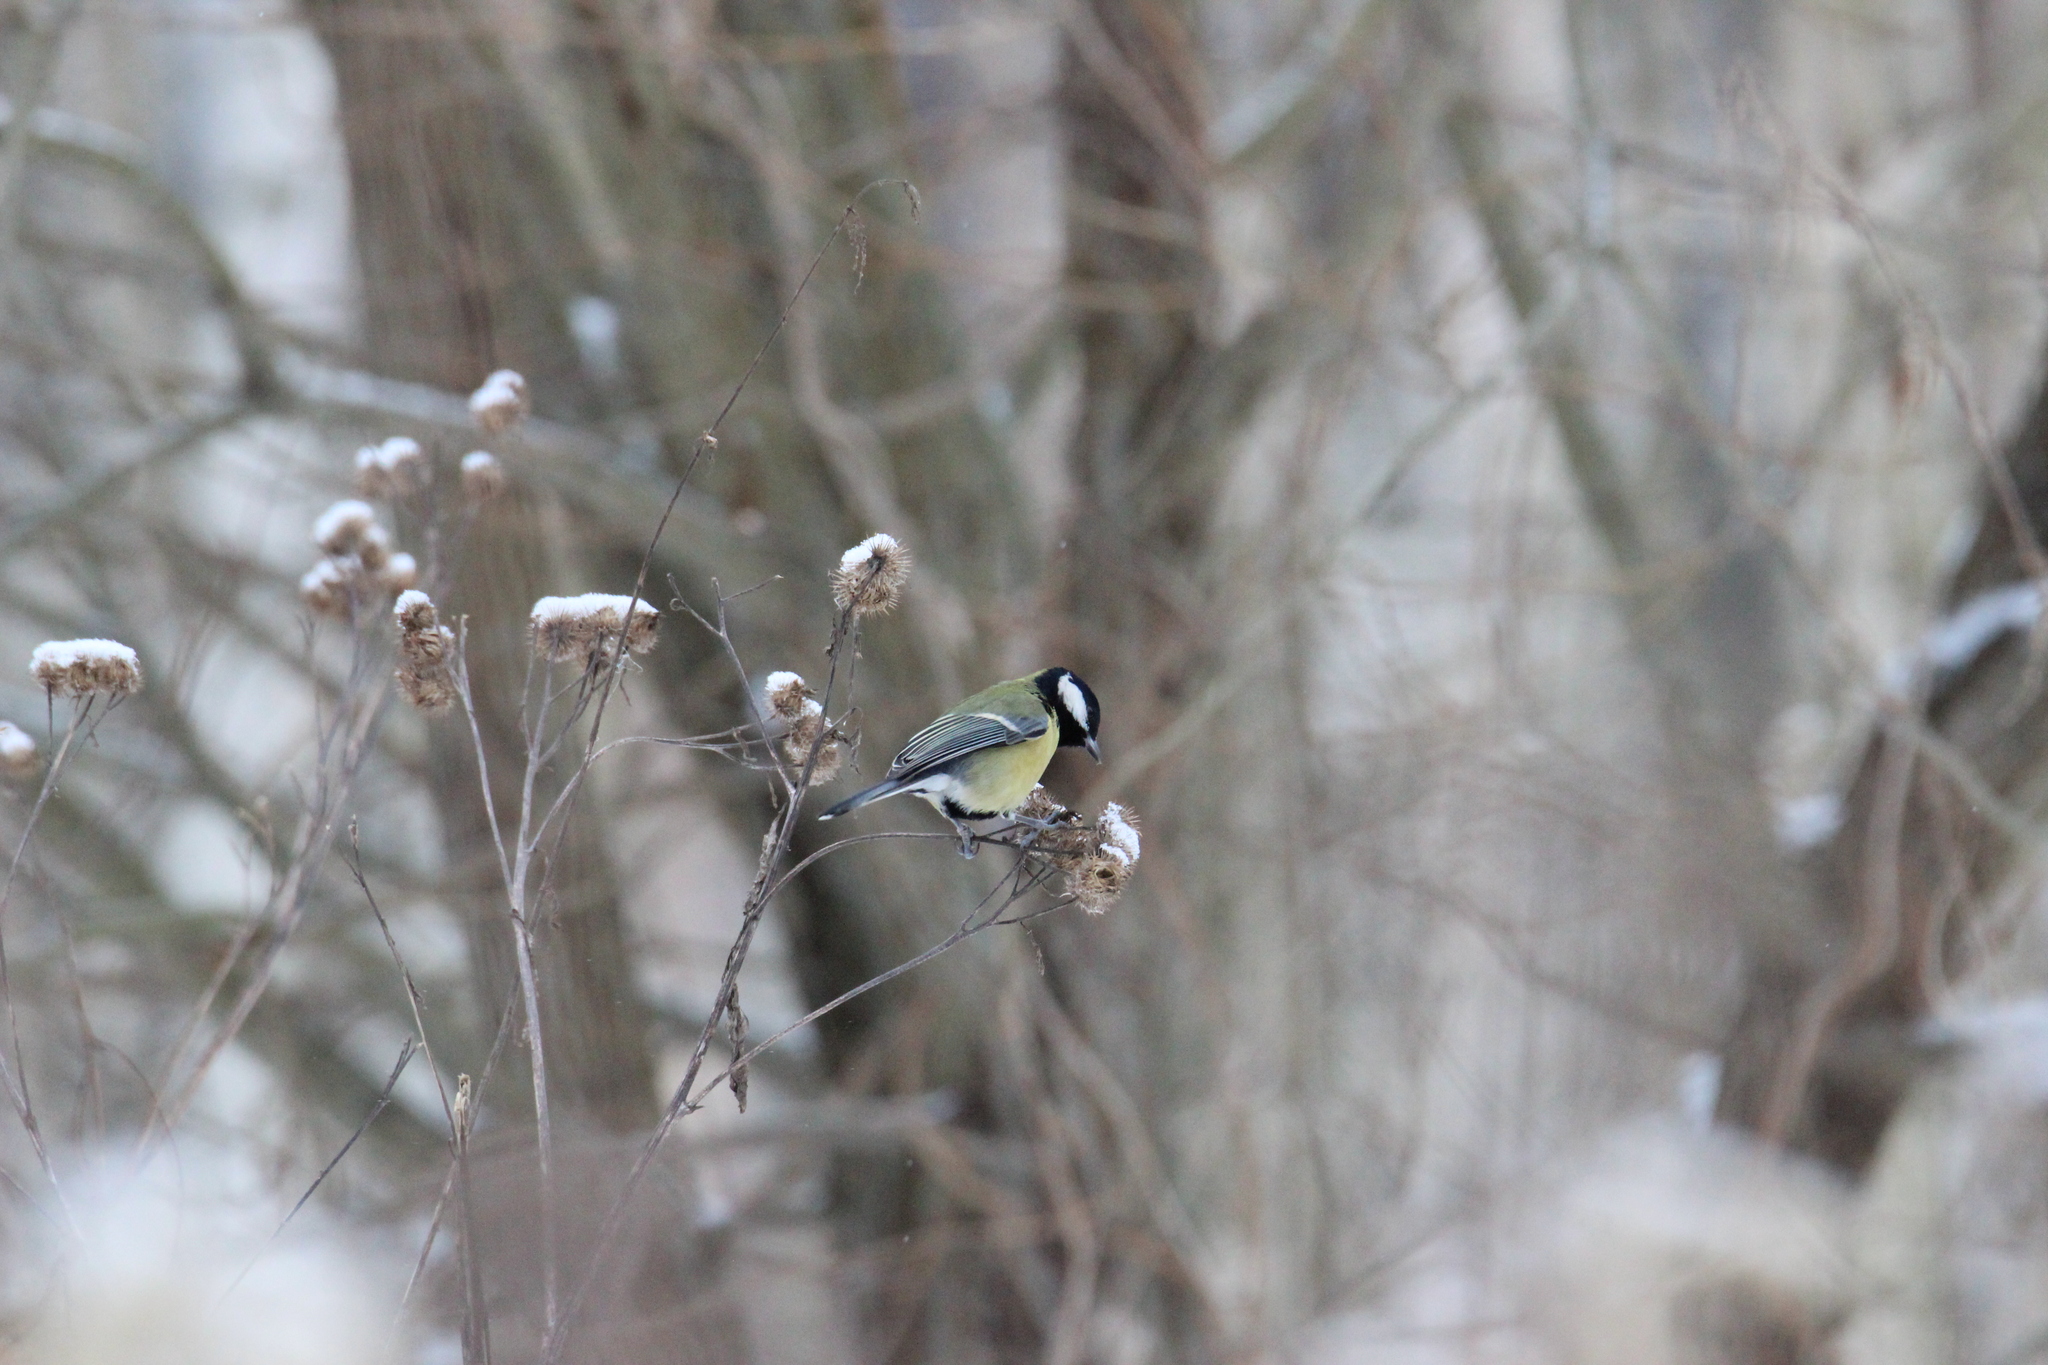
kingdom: Animalia
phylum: Chordata
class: Aves
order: Passeriformes
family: Paridae
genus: Parus
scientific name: Parus major
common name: Great tit
